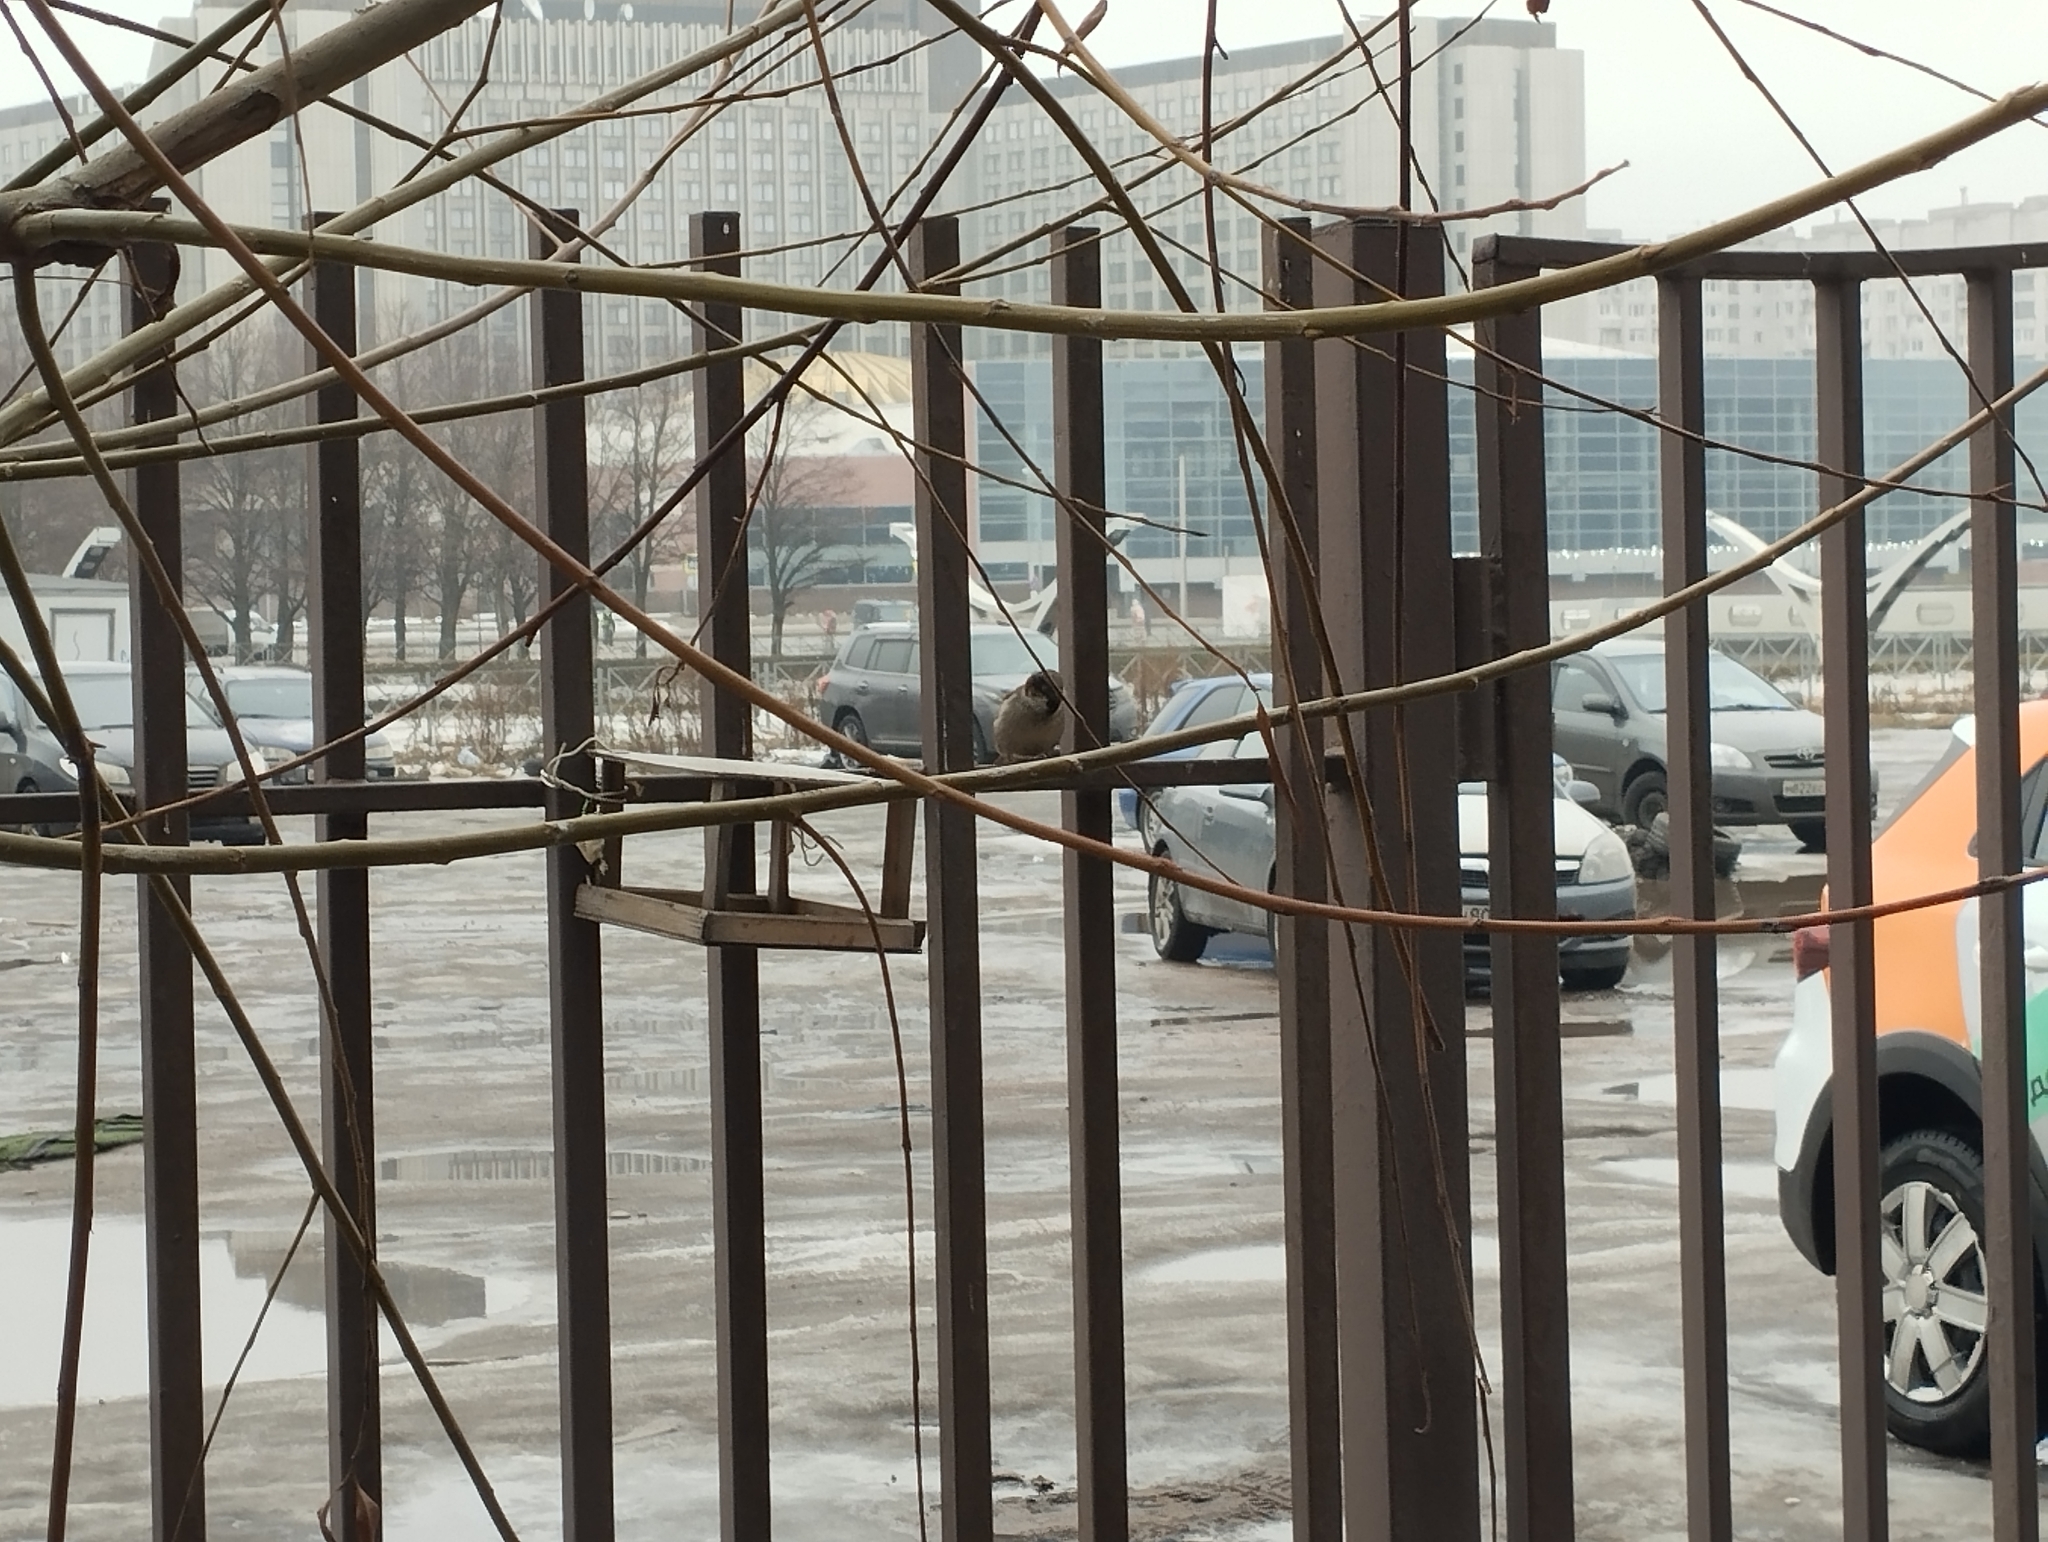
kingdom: Animalia
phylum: Chordata
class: Aves
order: Passeriformes
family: Passeridae
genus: Passer
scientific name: Passer domesticus
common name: House sparrow
